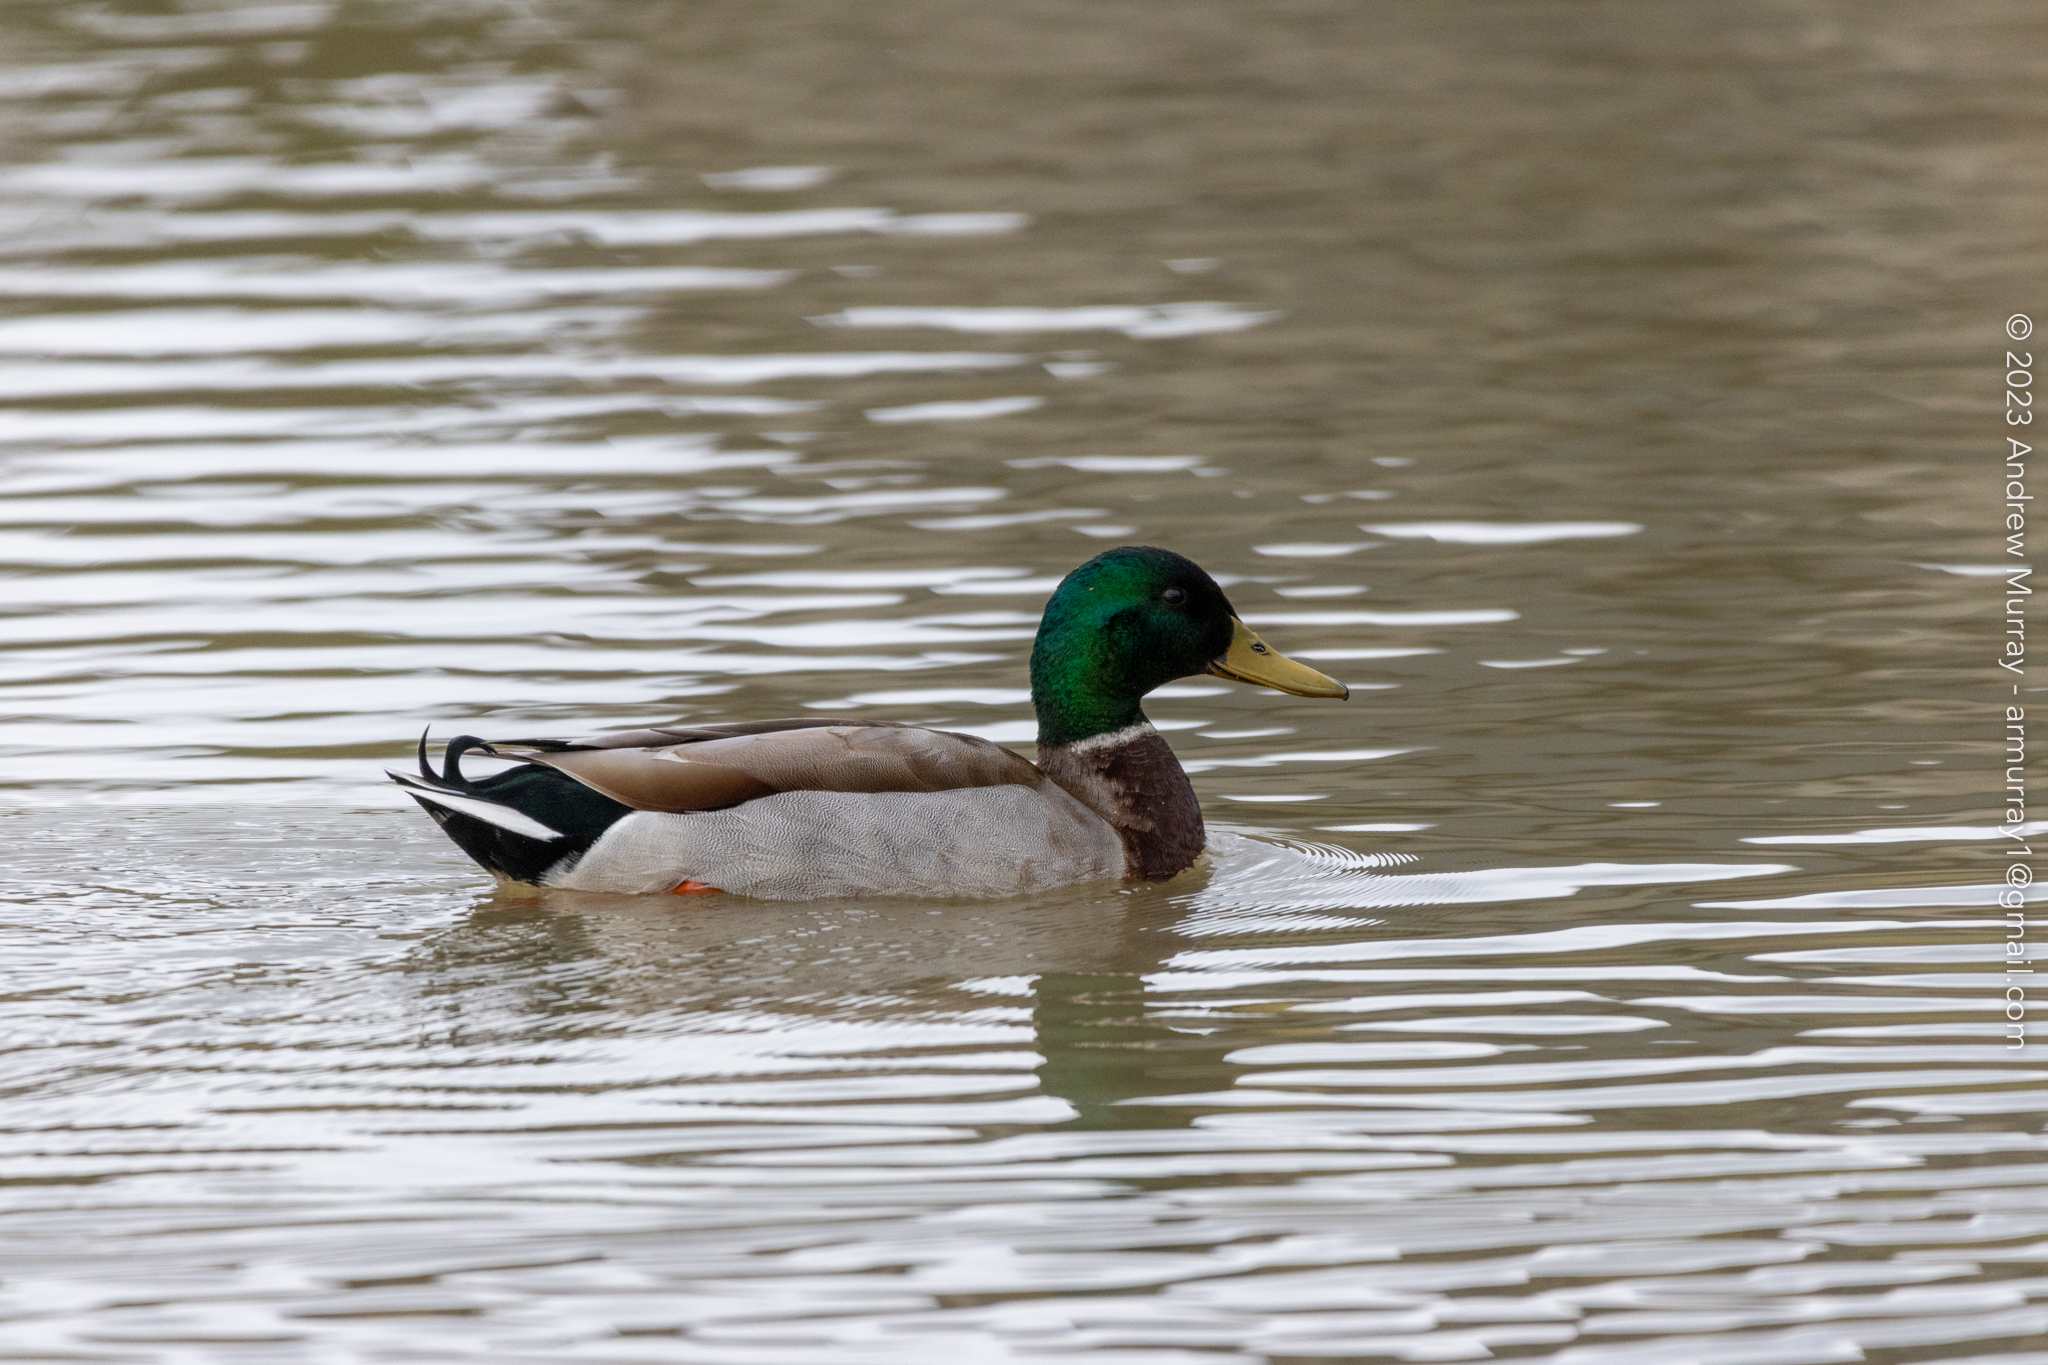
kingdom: Animalia
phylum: Chordata
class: Aves
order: Anseriformes
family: Anatidae
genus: Anas
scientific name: Anas platyrhynchos
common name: Mallard
